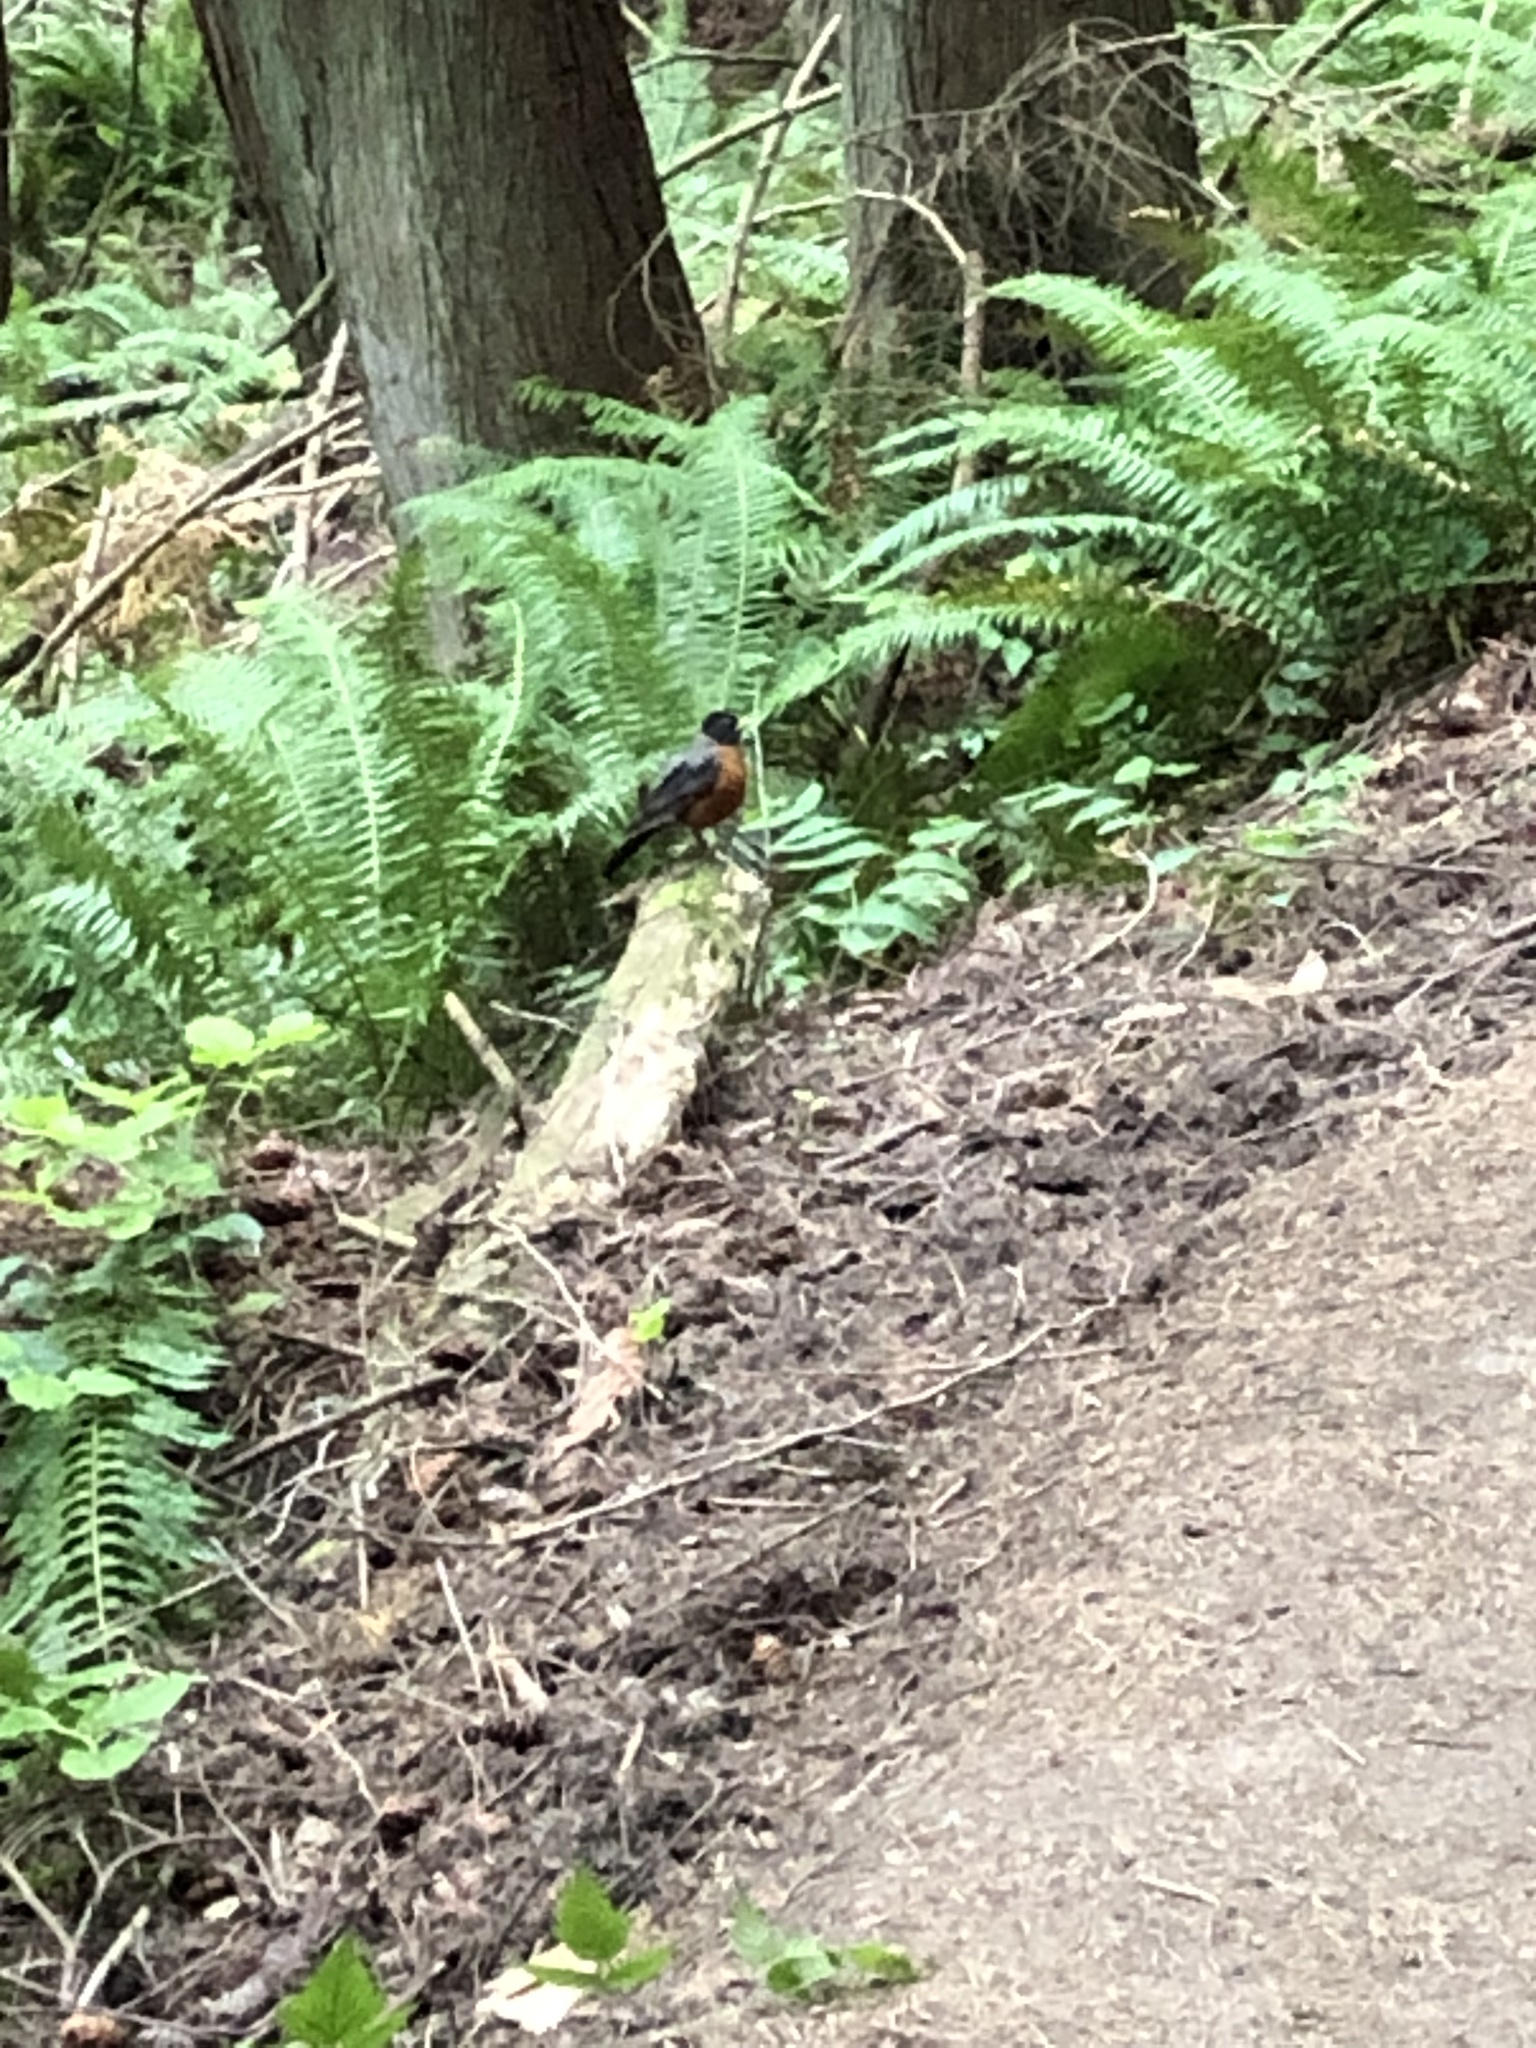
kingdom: Animalia
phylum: Chordata
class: Aves
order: Passeriformes
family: Turdidae
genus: Turdus
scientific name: Turdus migratorius
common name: American robin
